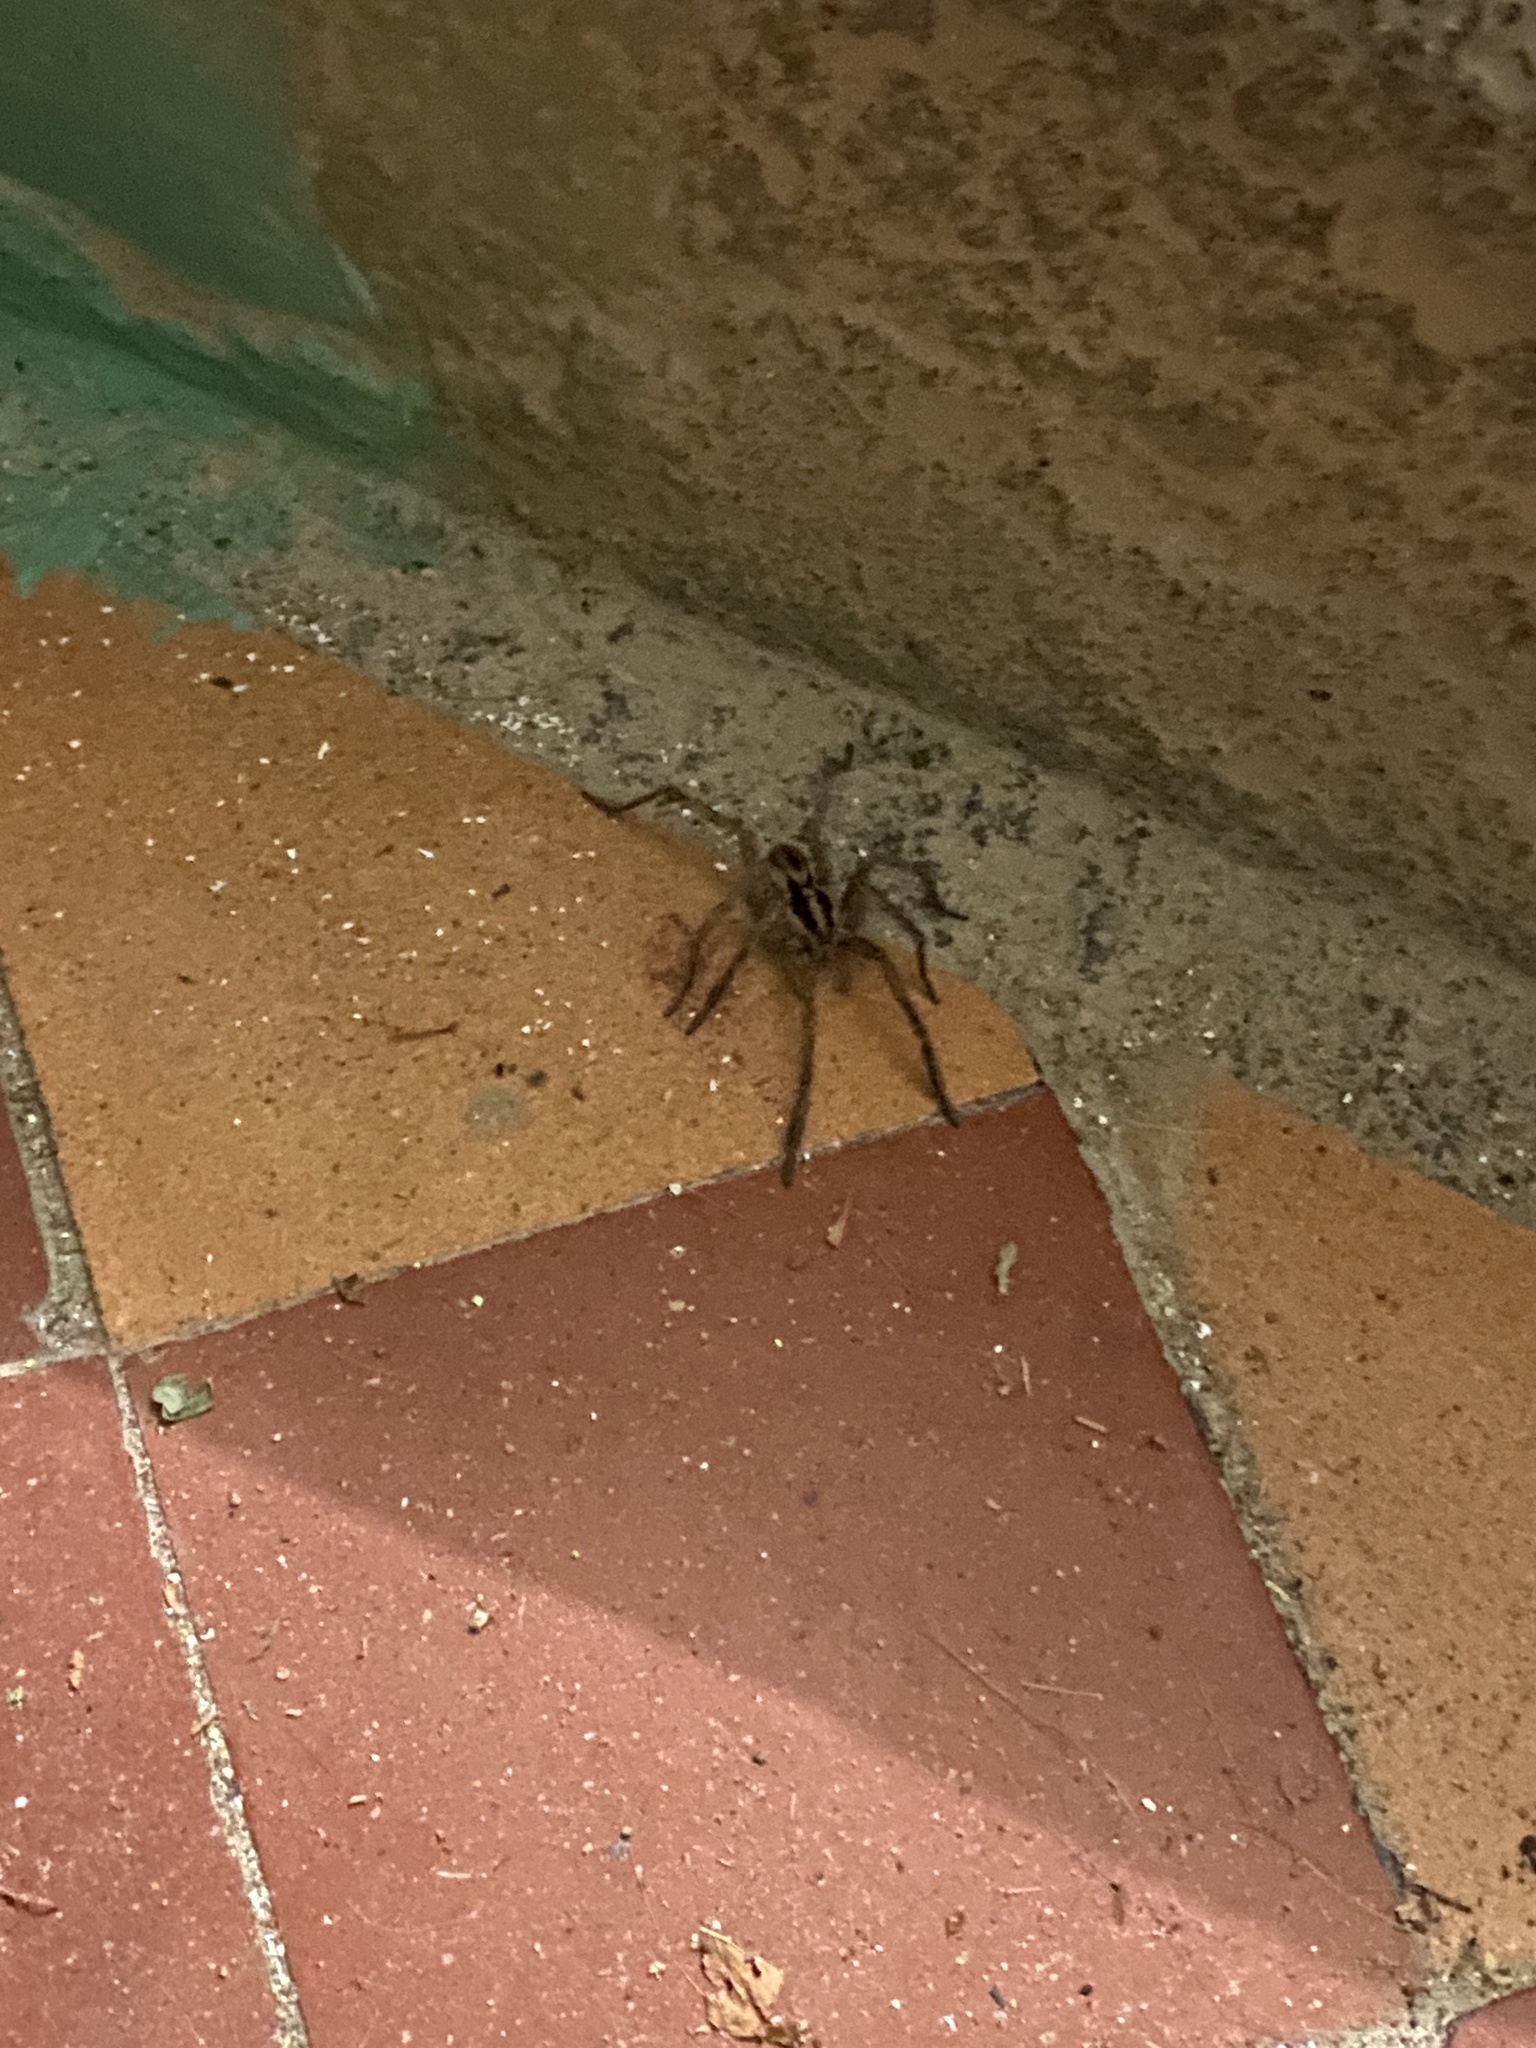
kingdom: Animalia
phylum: Arthropoda
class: Arachnida
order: Araneae
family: Lycosidae
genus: Hogna
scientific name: Hogna radiata
